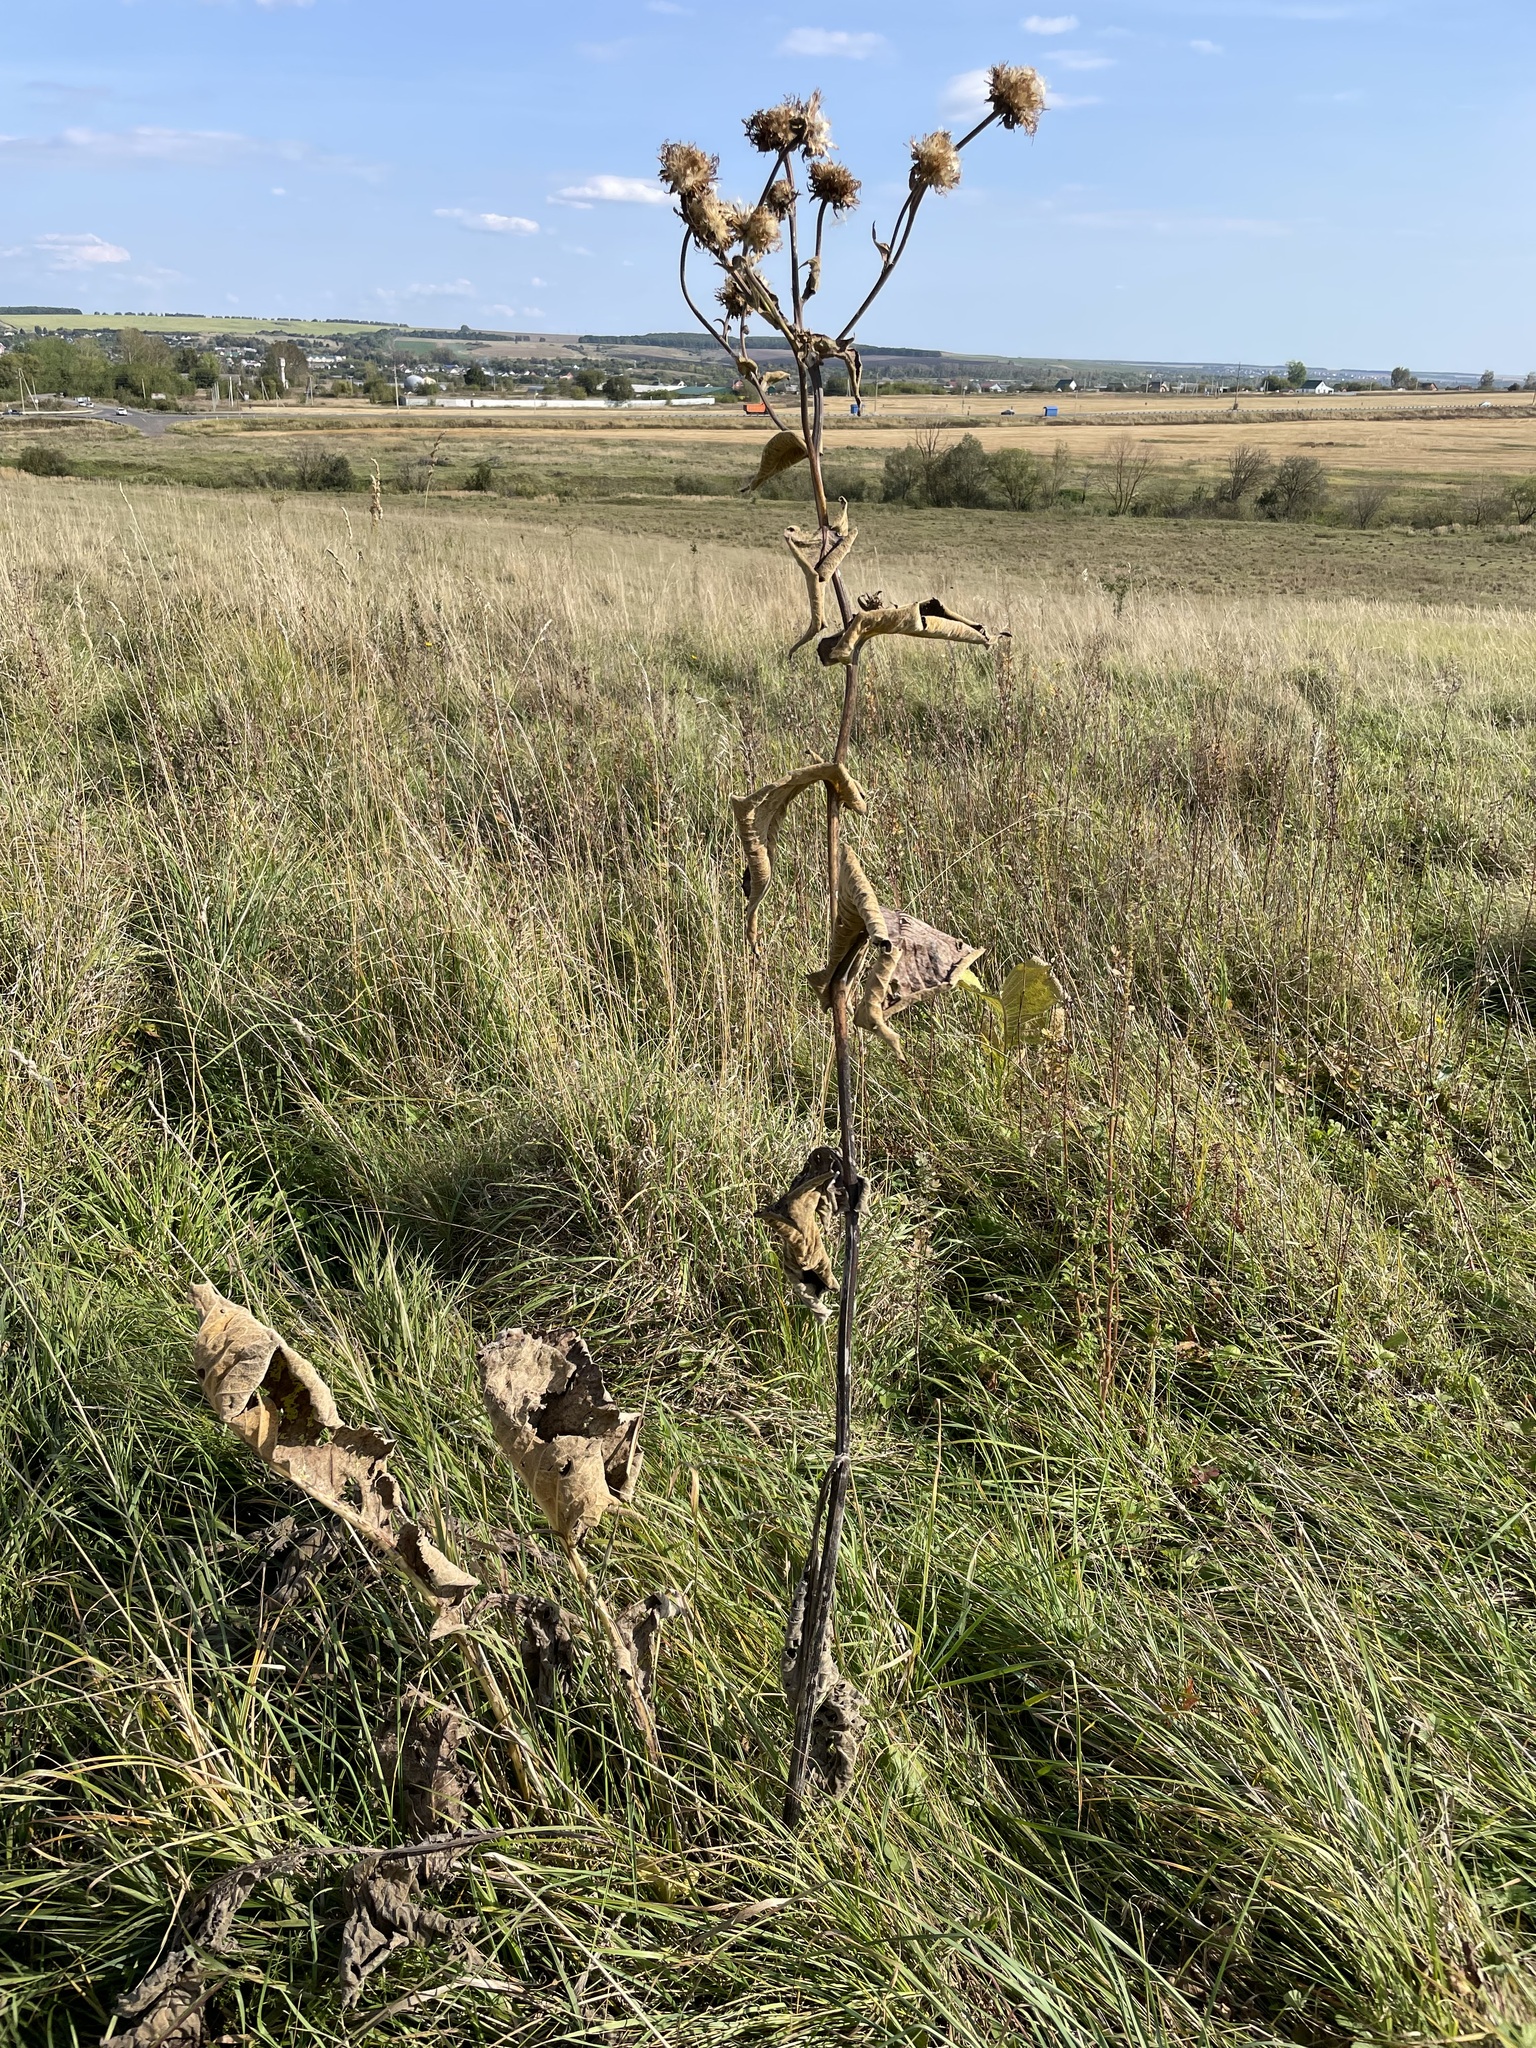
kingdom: Plantae
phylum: Tracheophyta
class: Magnoliopsida
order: Asterales
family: Asteraceae
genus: Inula
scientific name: Inula helenium
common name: Elecampane
